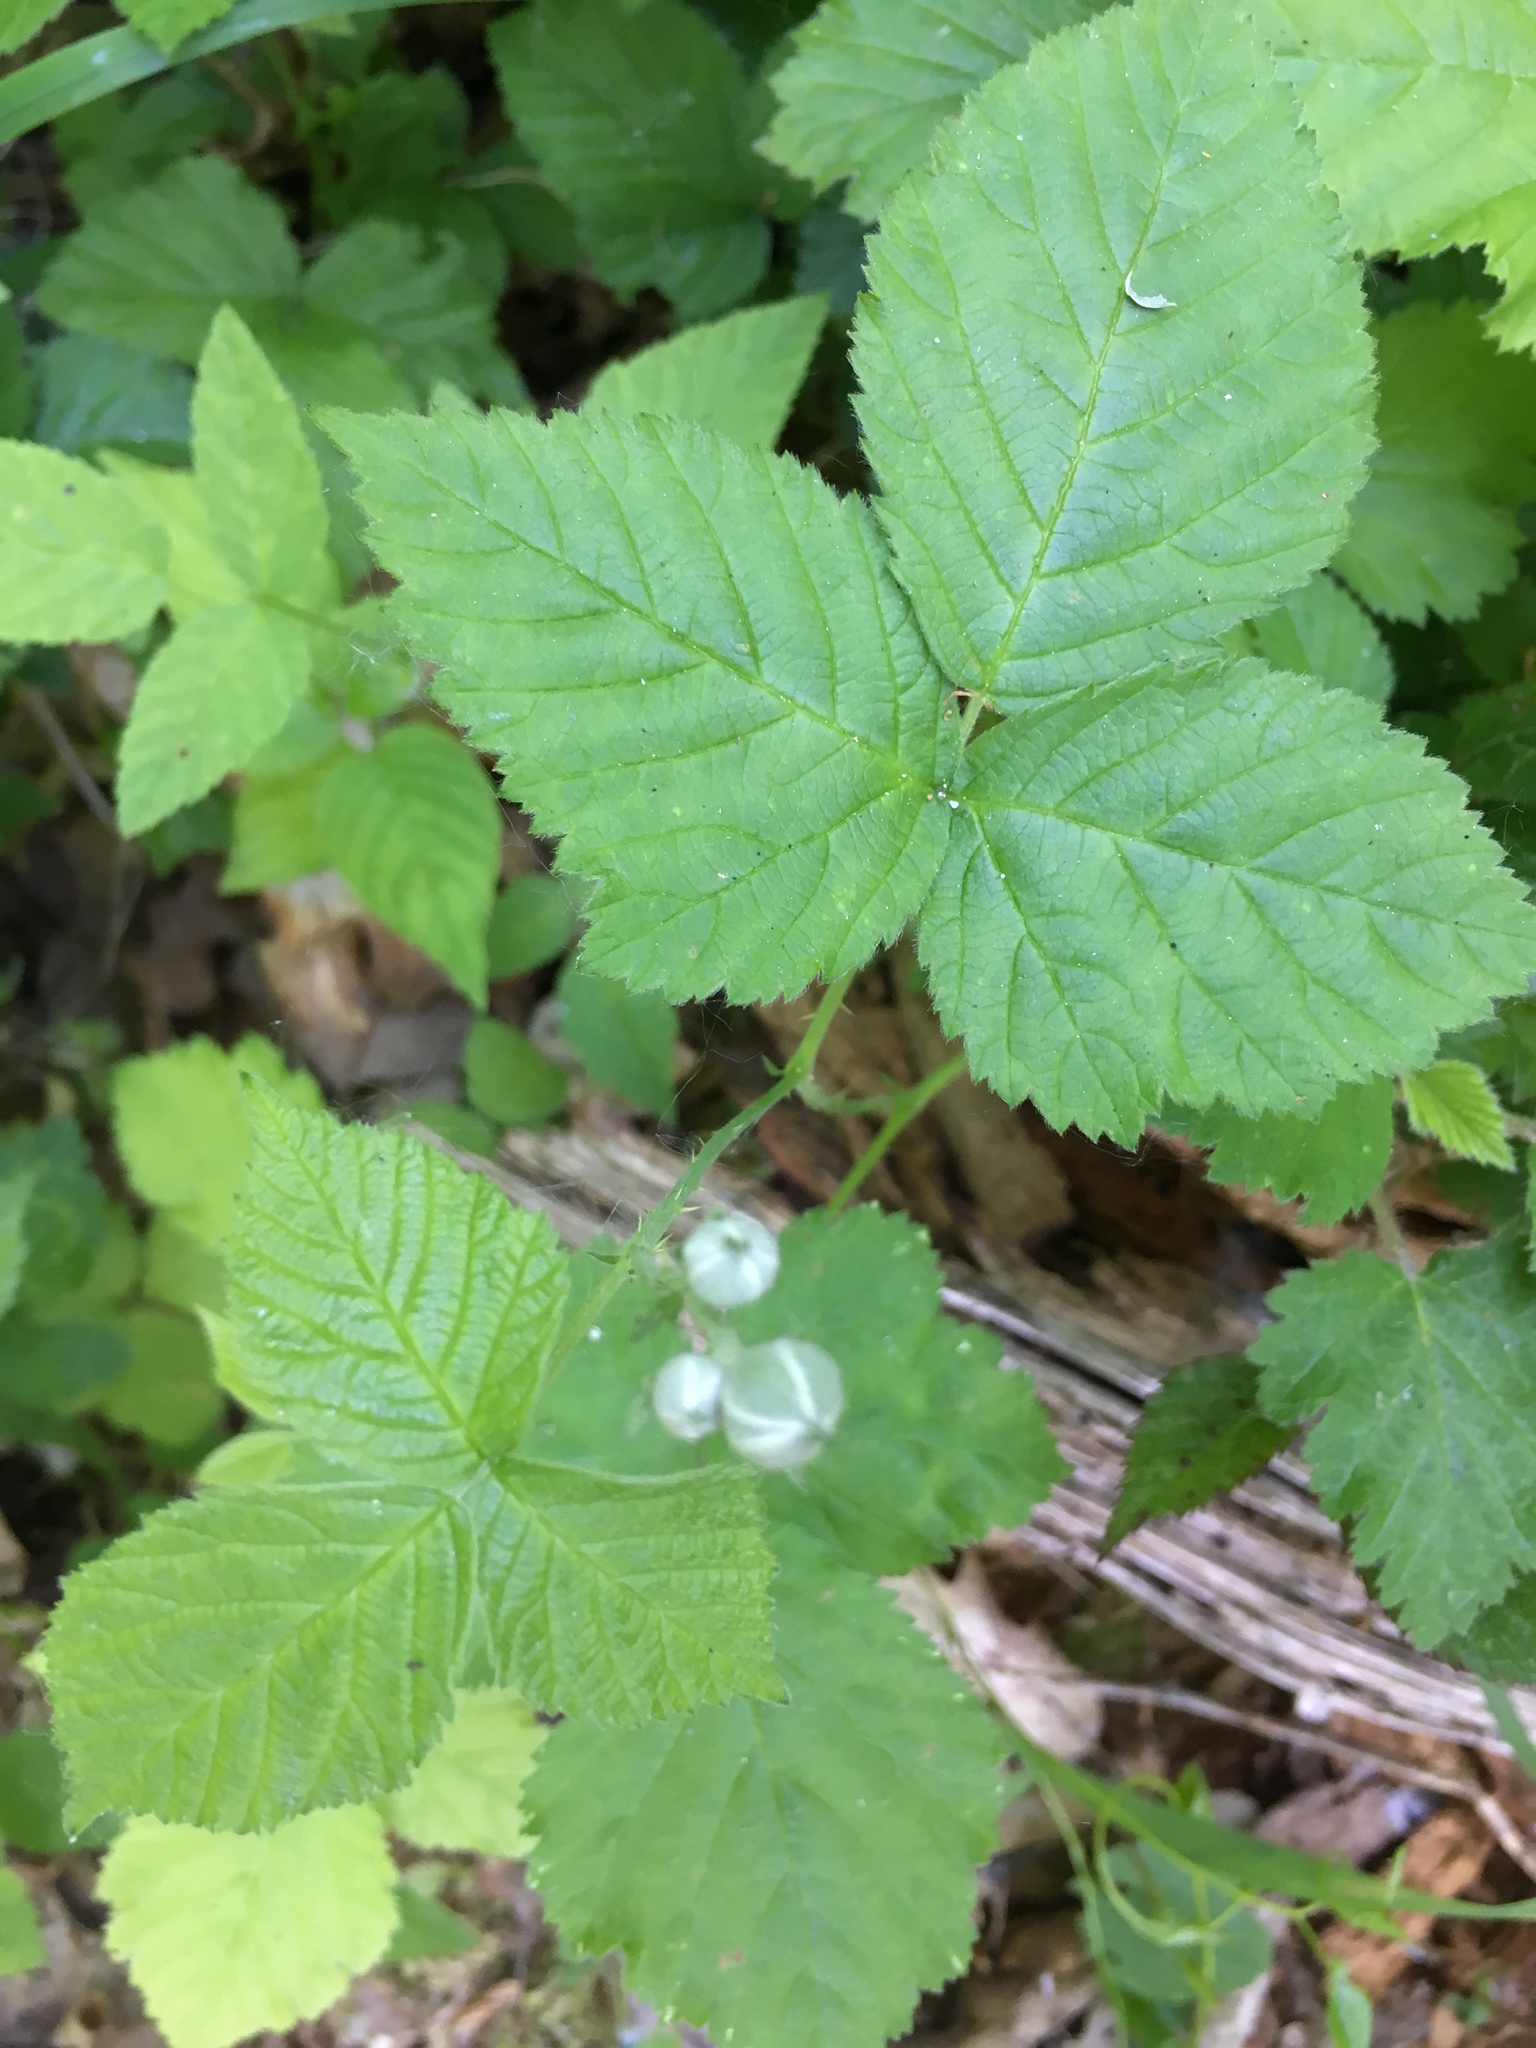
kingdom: Plantae
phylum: Tracheophyta
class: Magnoliopsida
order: Rosales
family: Rosaceae
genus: Rubus
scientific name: Rubus caesius
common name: Dewberry
